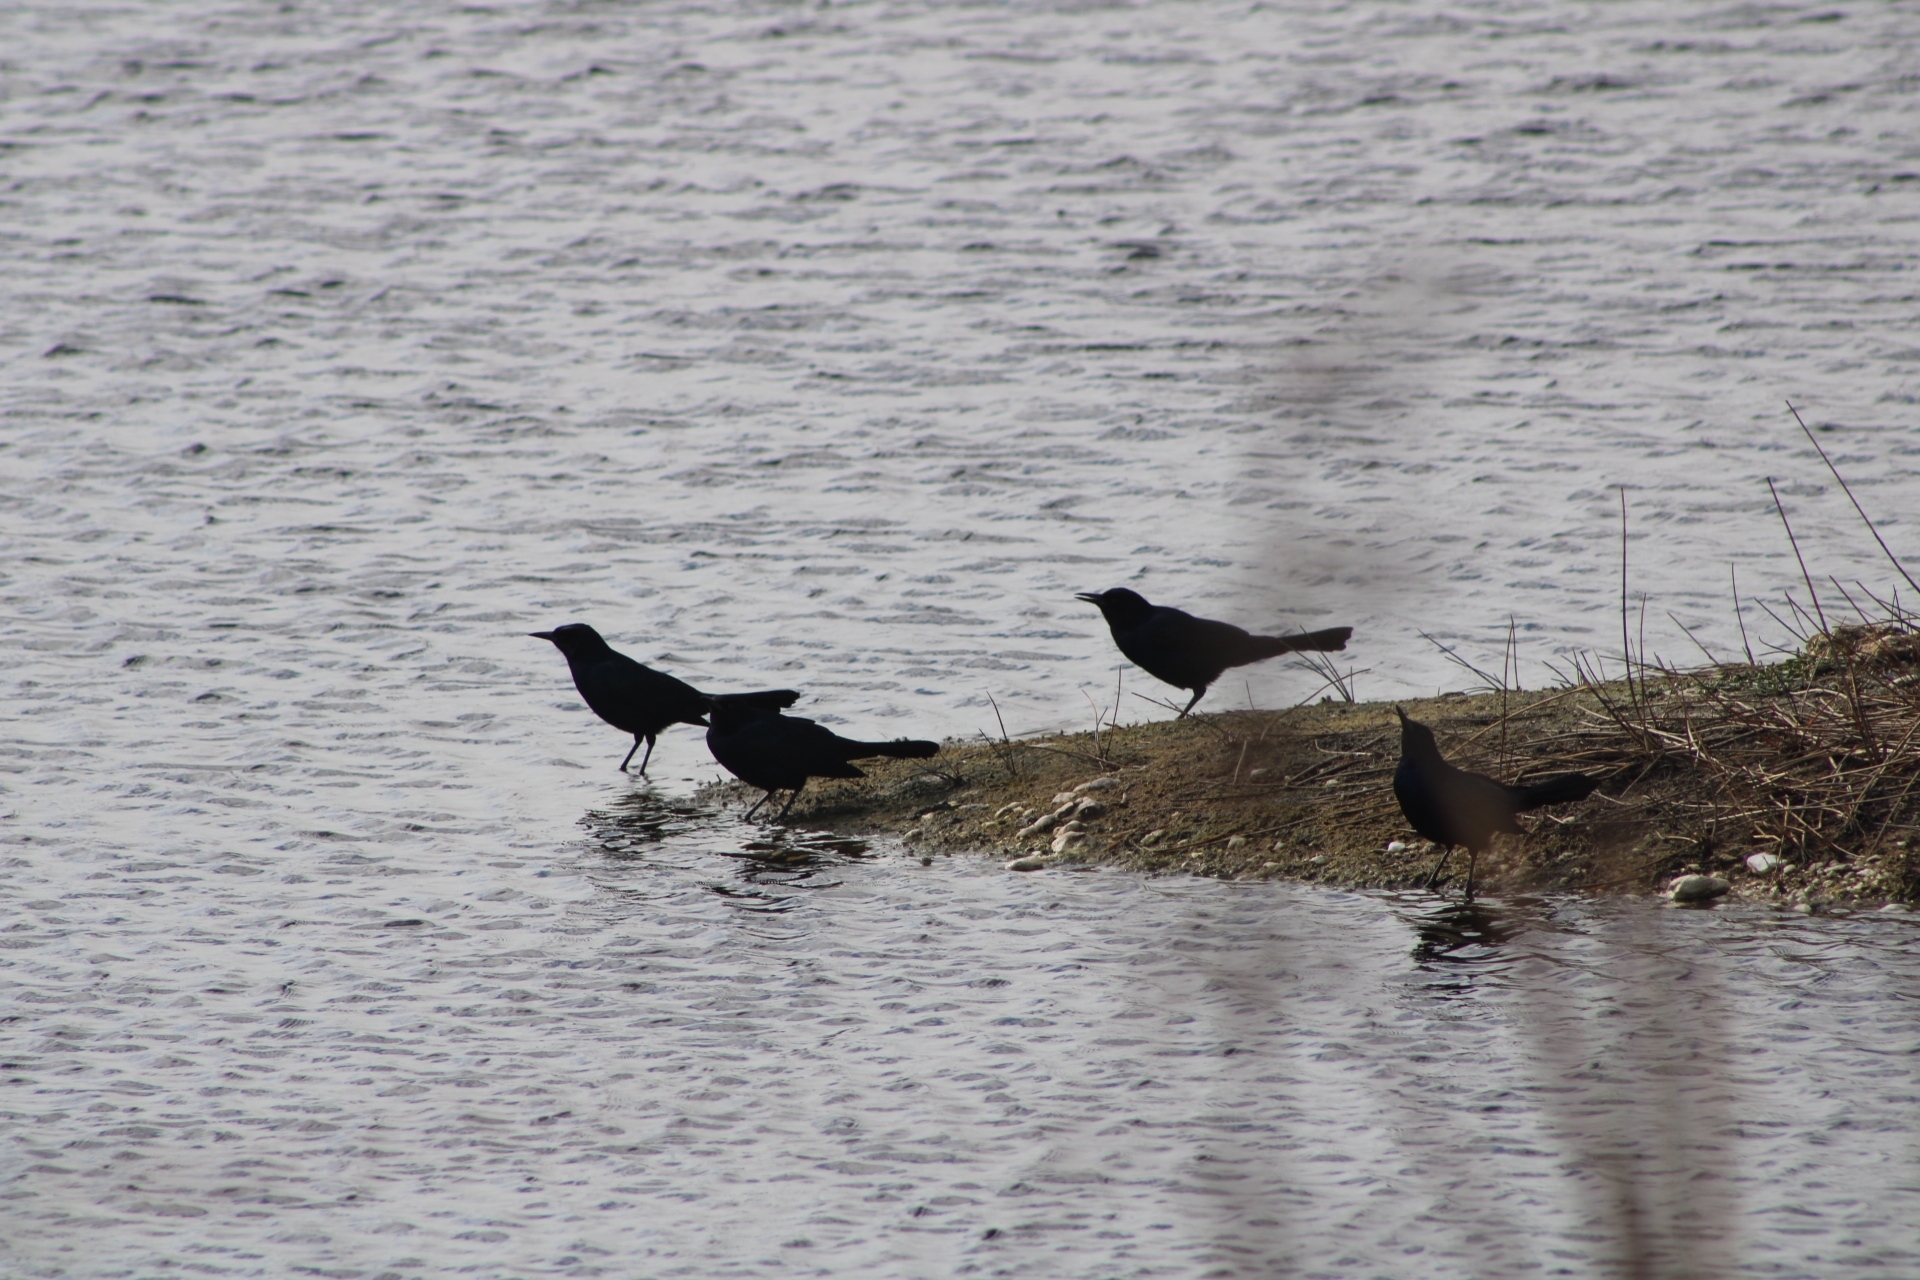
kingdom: Animalia
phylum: Chordata
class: Aves
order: Passeriformes
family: Icteridae
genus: Quiscalus
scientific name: Quiscalus major
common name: Boat-tailed grackle
